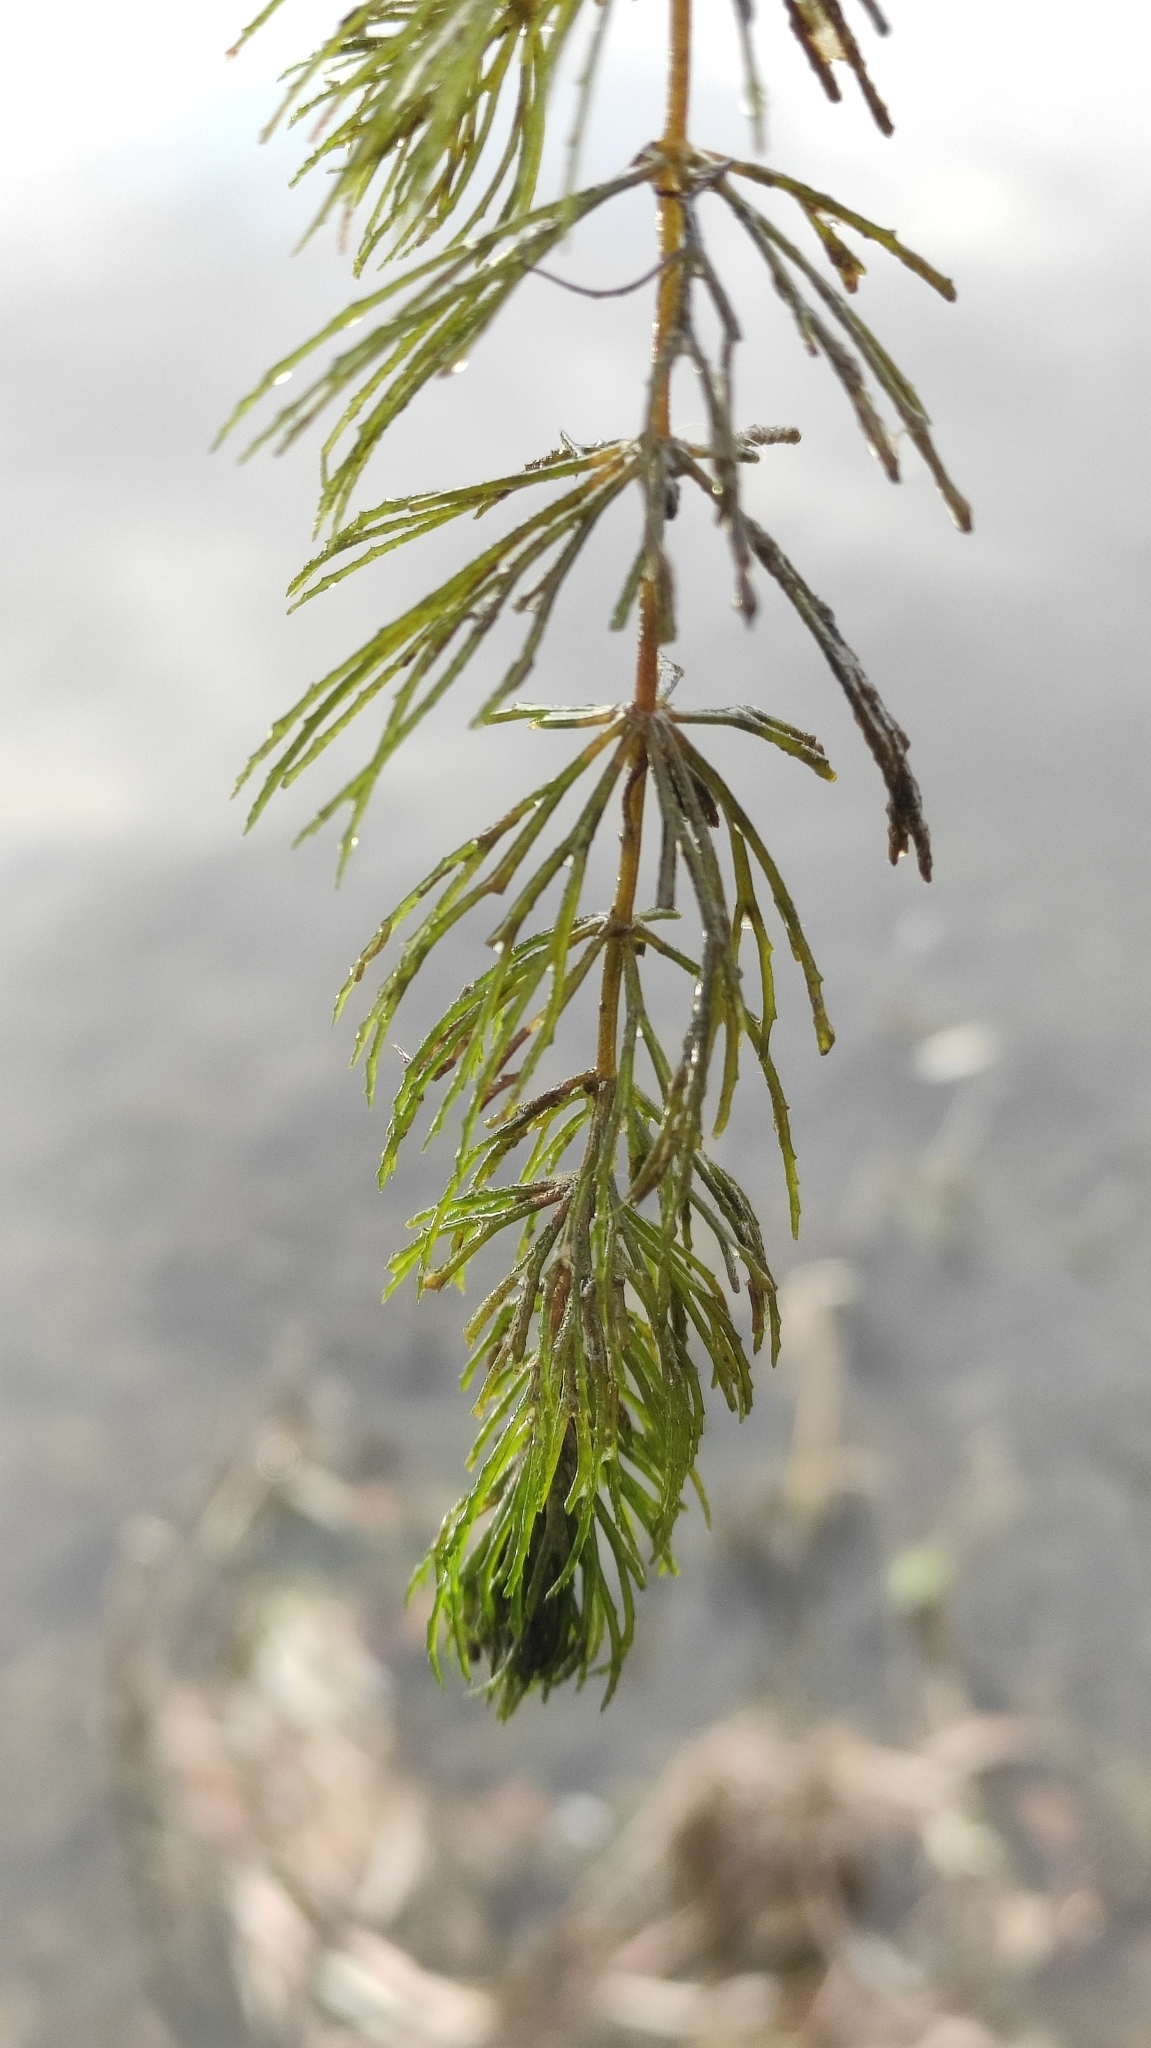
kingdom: Plantae
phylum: Tracheophyta
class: Magnoliopsida
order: Ceratophyllales
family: Ceratophyllaceae
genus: Ceratophyllum
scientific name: Ceratophyllum demersum
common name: Rigid hornwort
